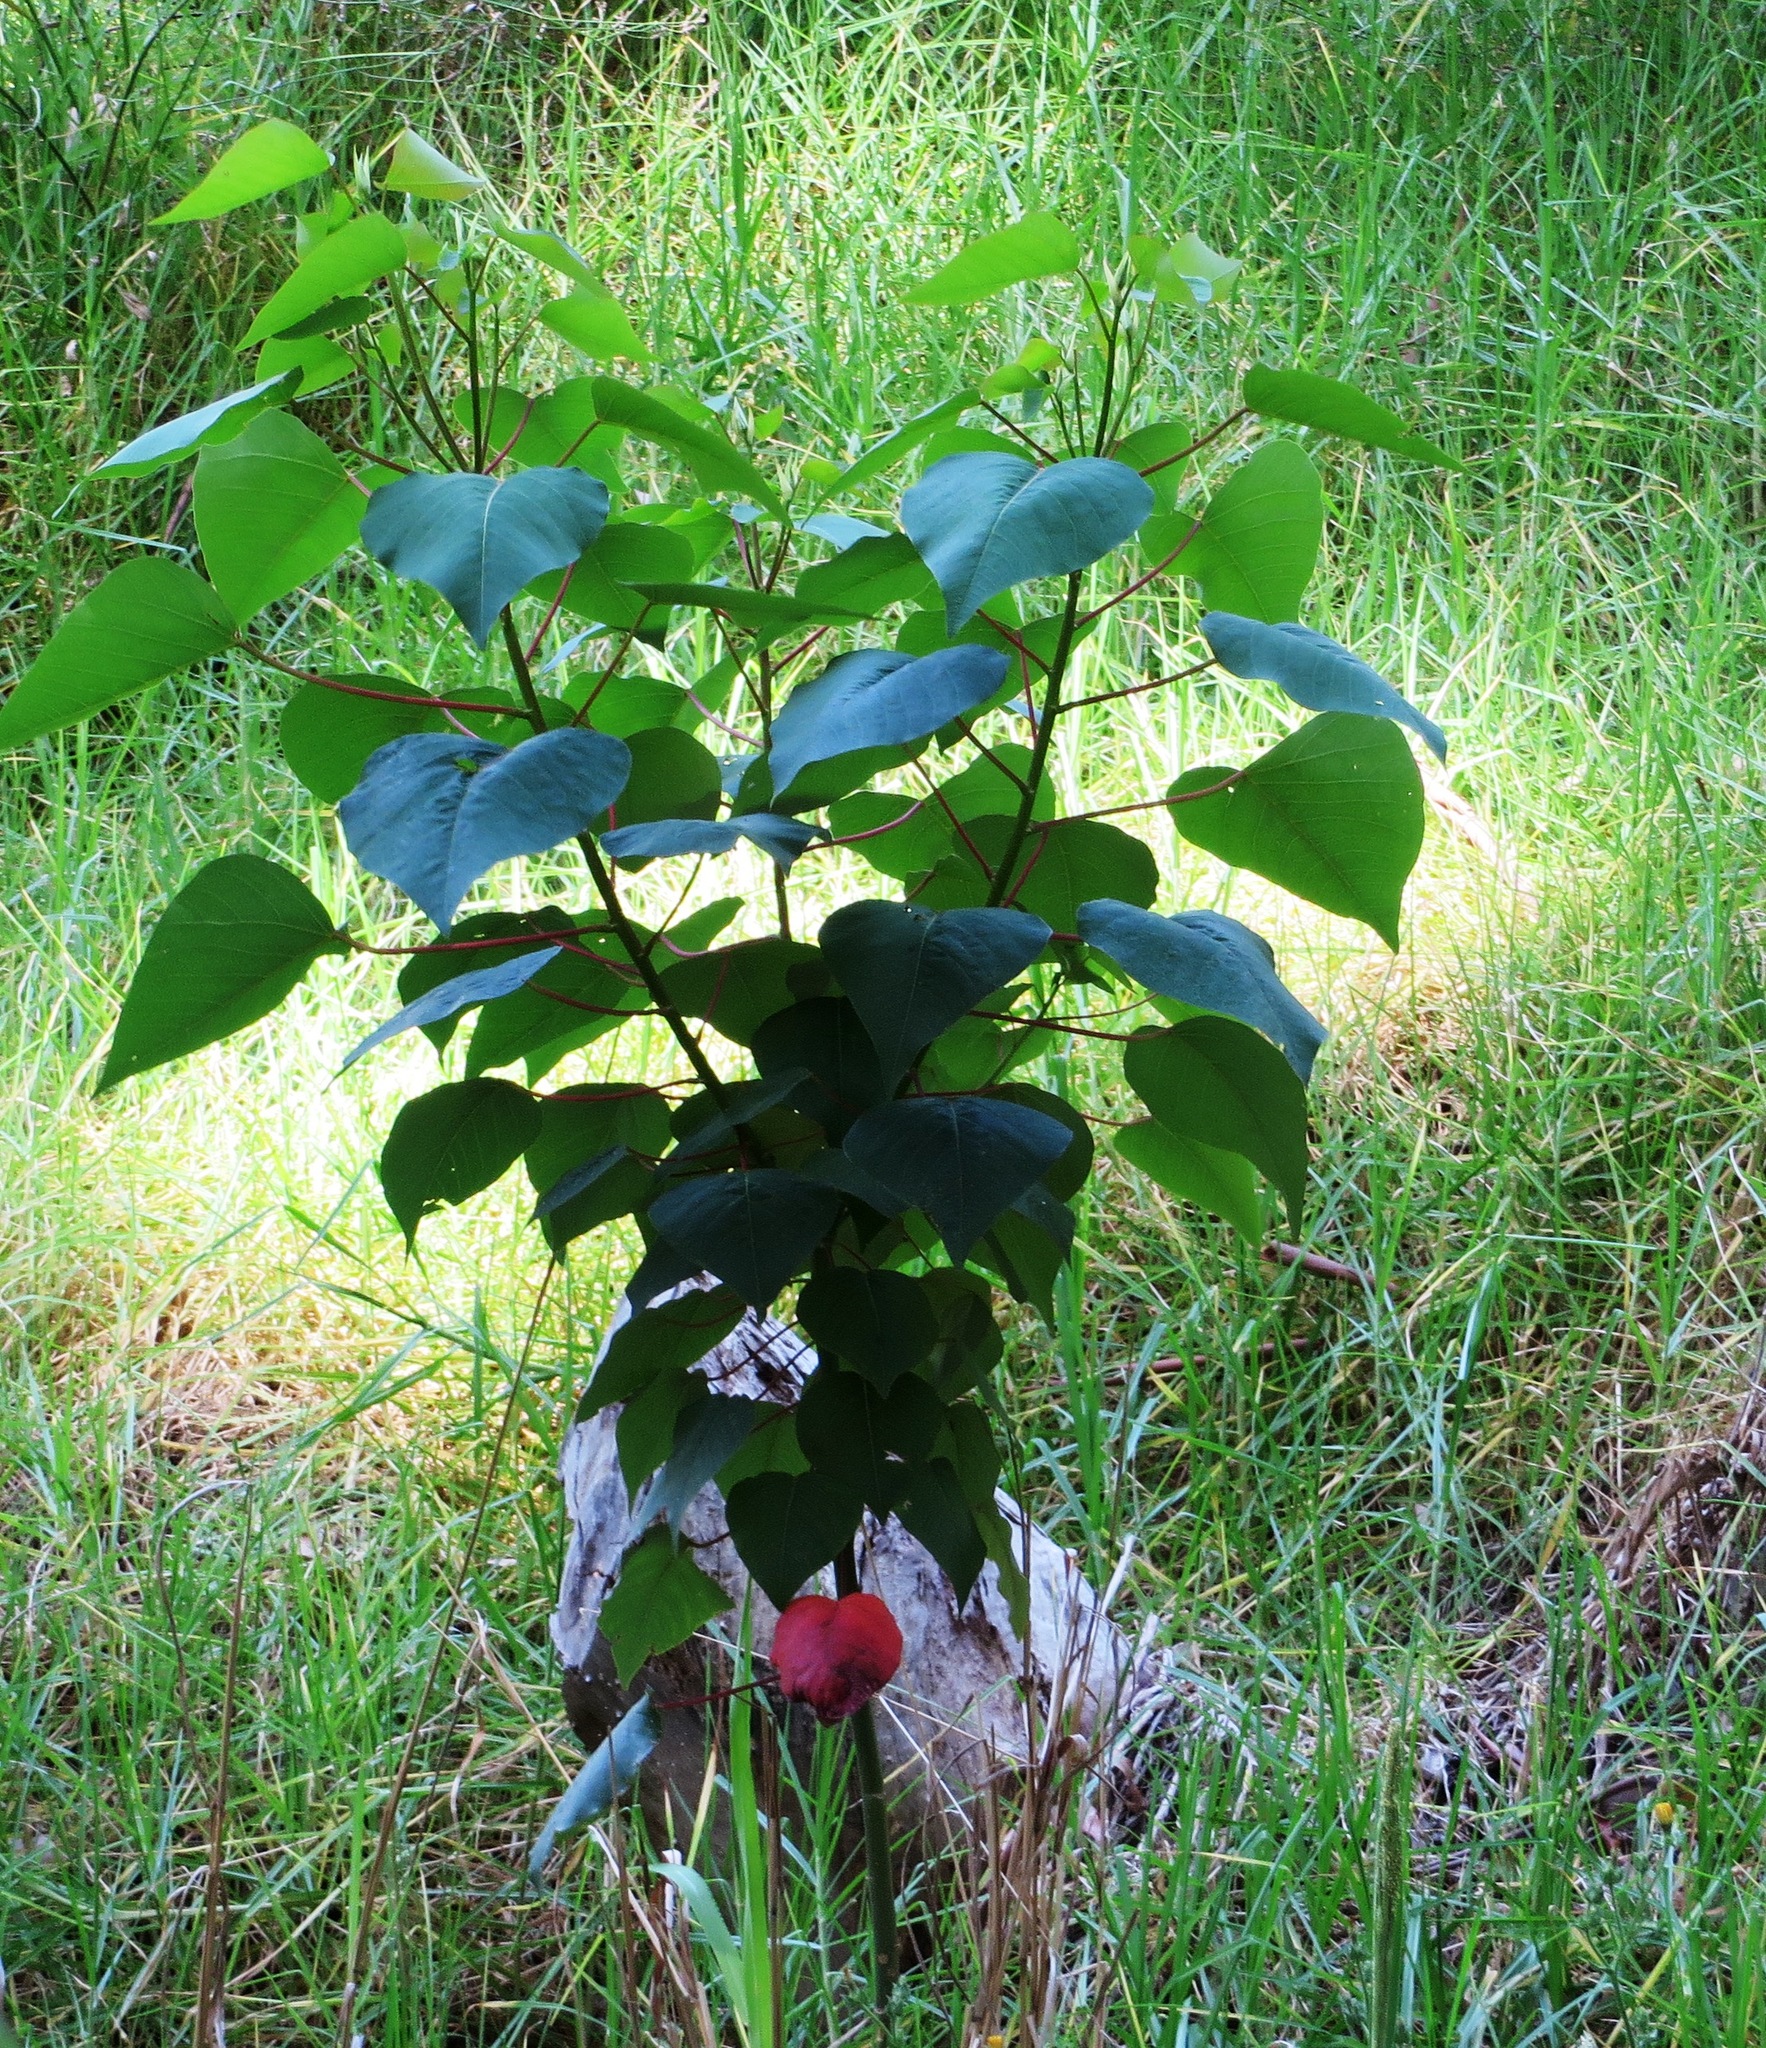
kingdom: Plantae
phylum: Tracheophyta
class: Magnoliopsida
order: Malpighiales
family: Euphorbiaceae
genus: Homalanthus
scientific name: Homalanthus populifolius
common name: Queensland poplar
